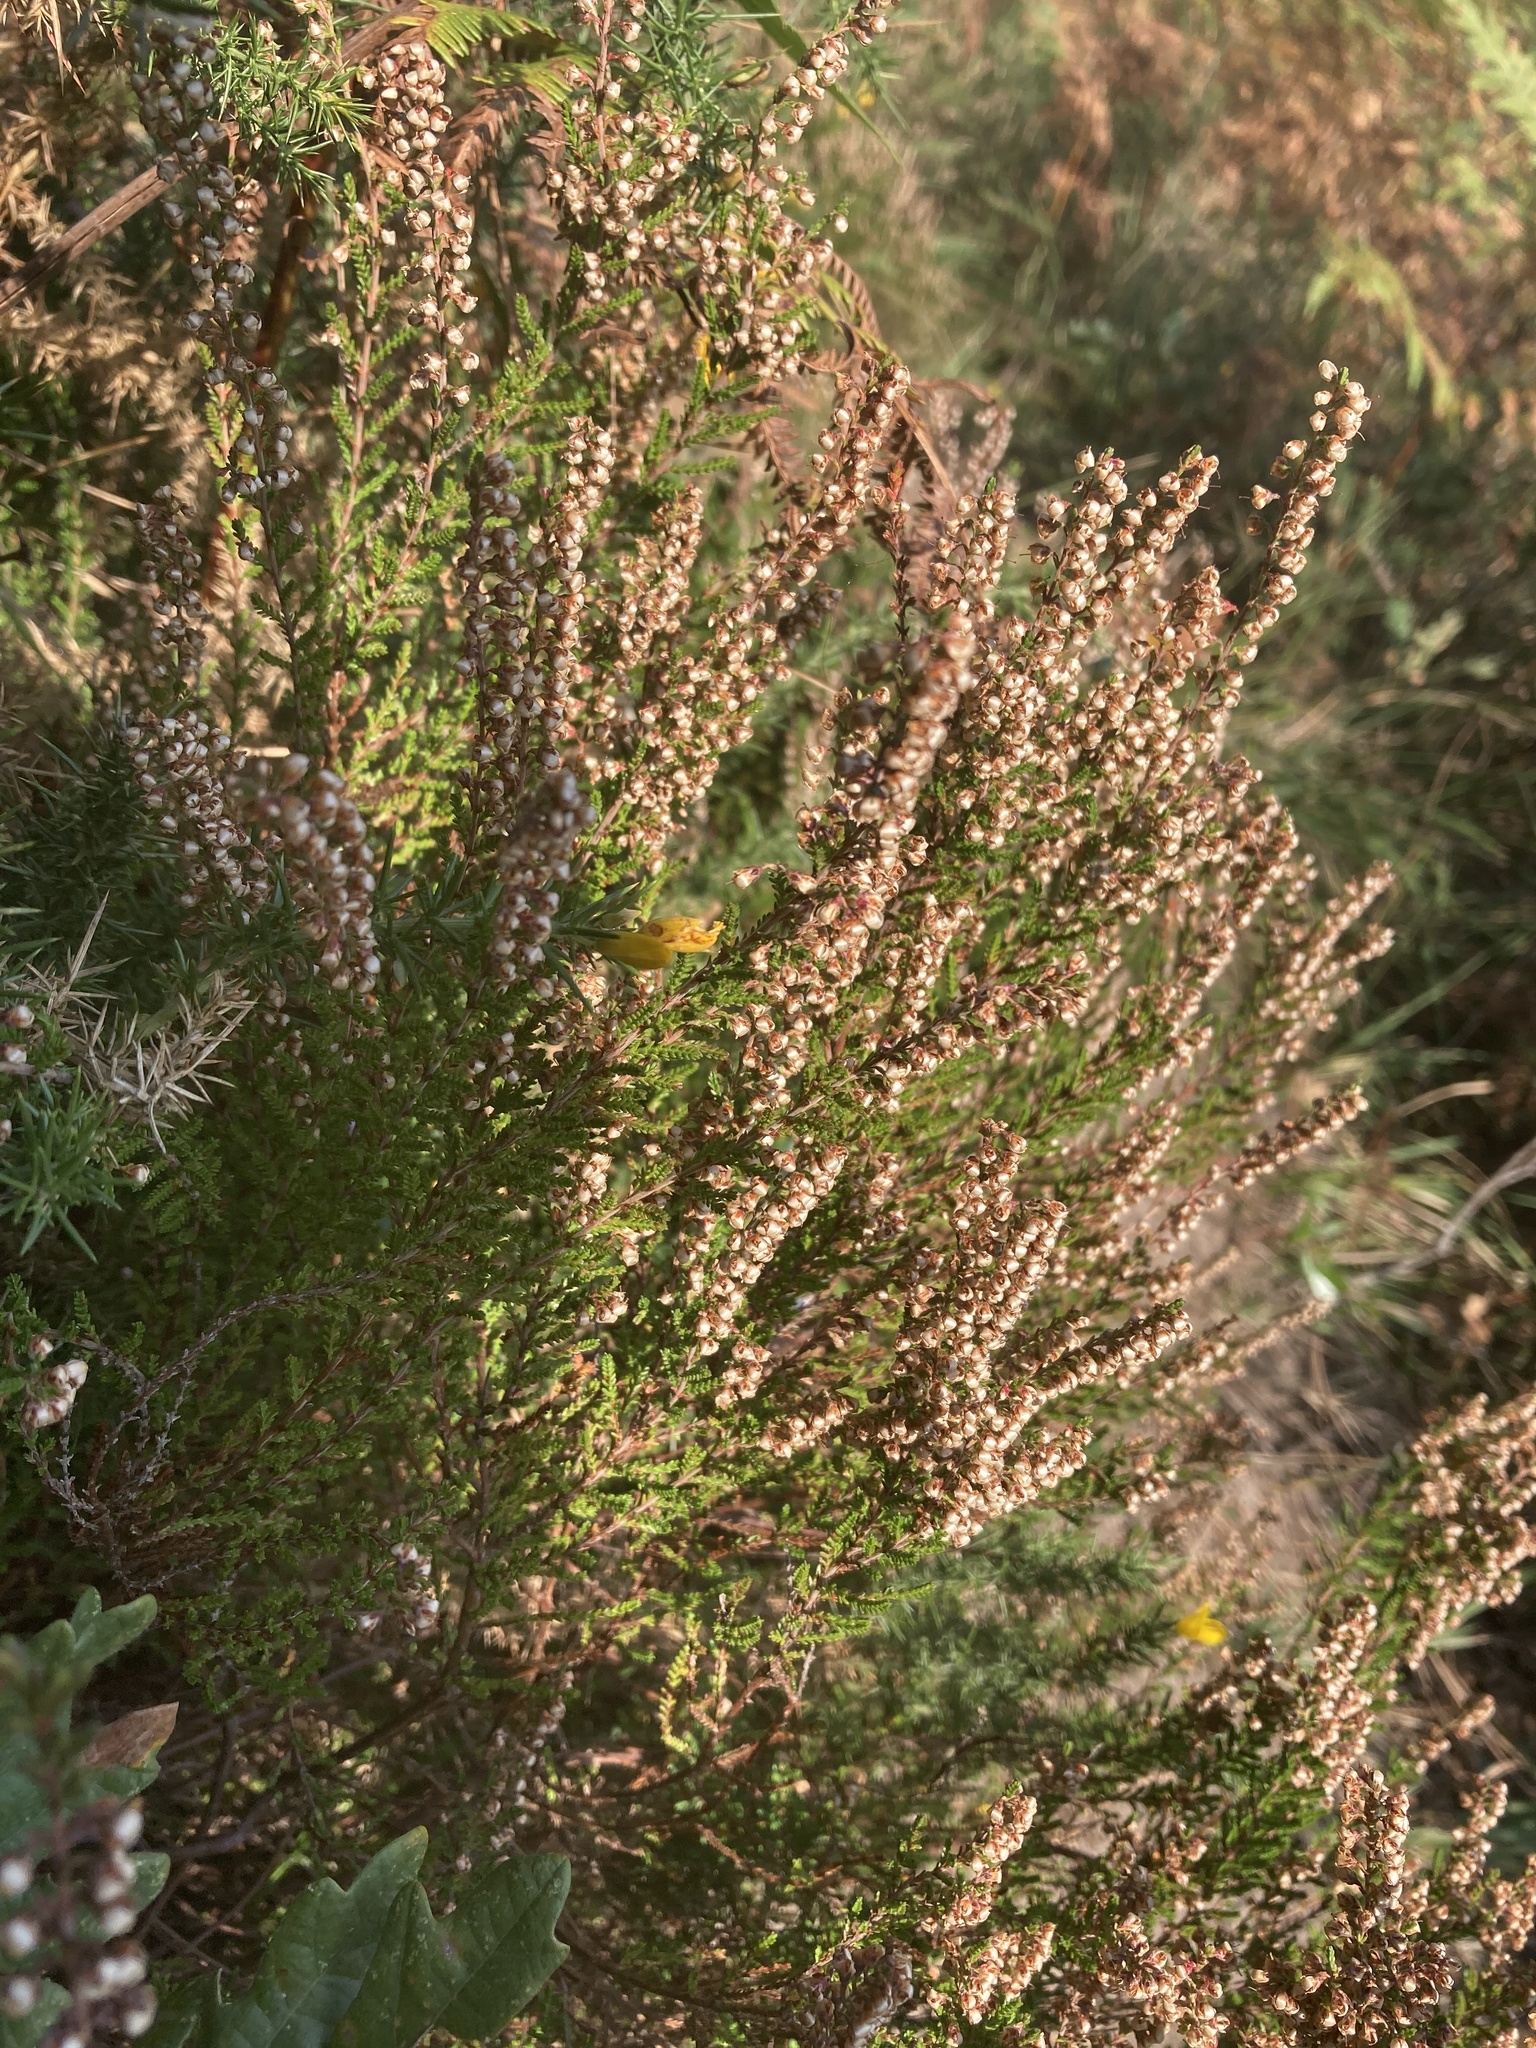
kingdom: Plantae
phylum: Tracheophyta
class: Magnoliopsida
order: Ericales
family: Ericaceae
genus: Calluna
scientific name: Calluna vulgaris
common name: Heather
